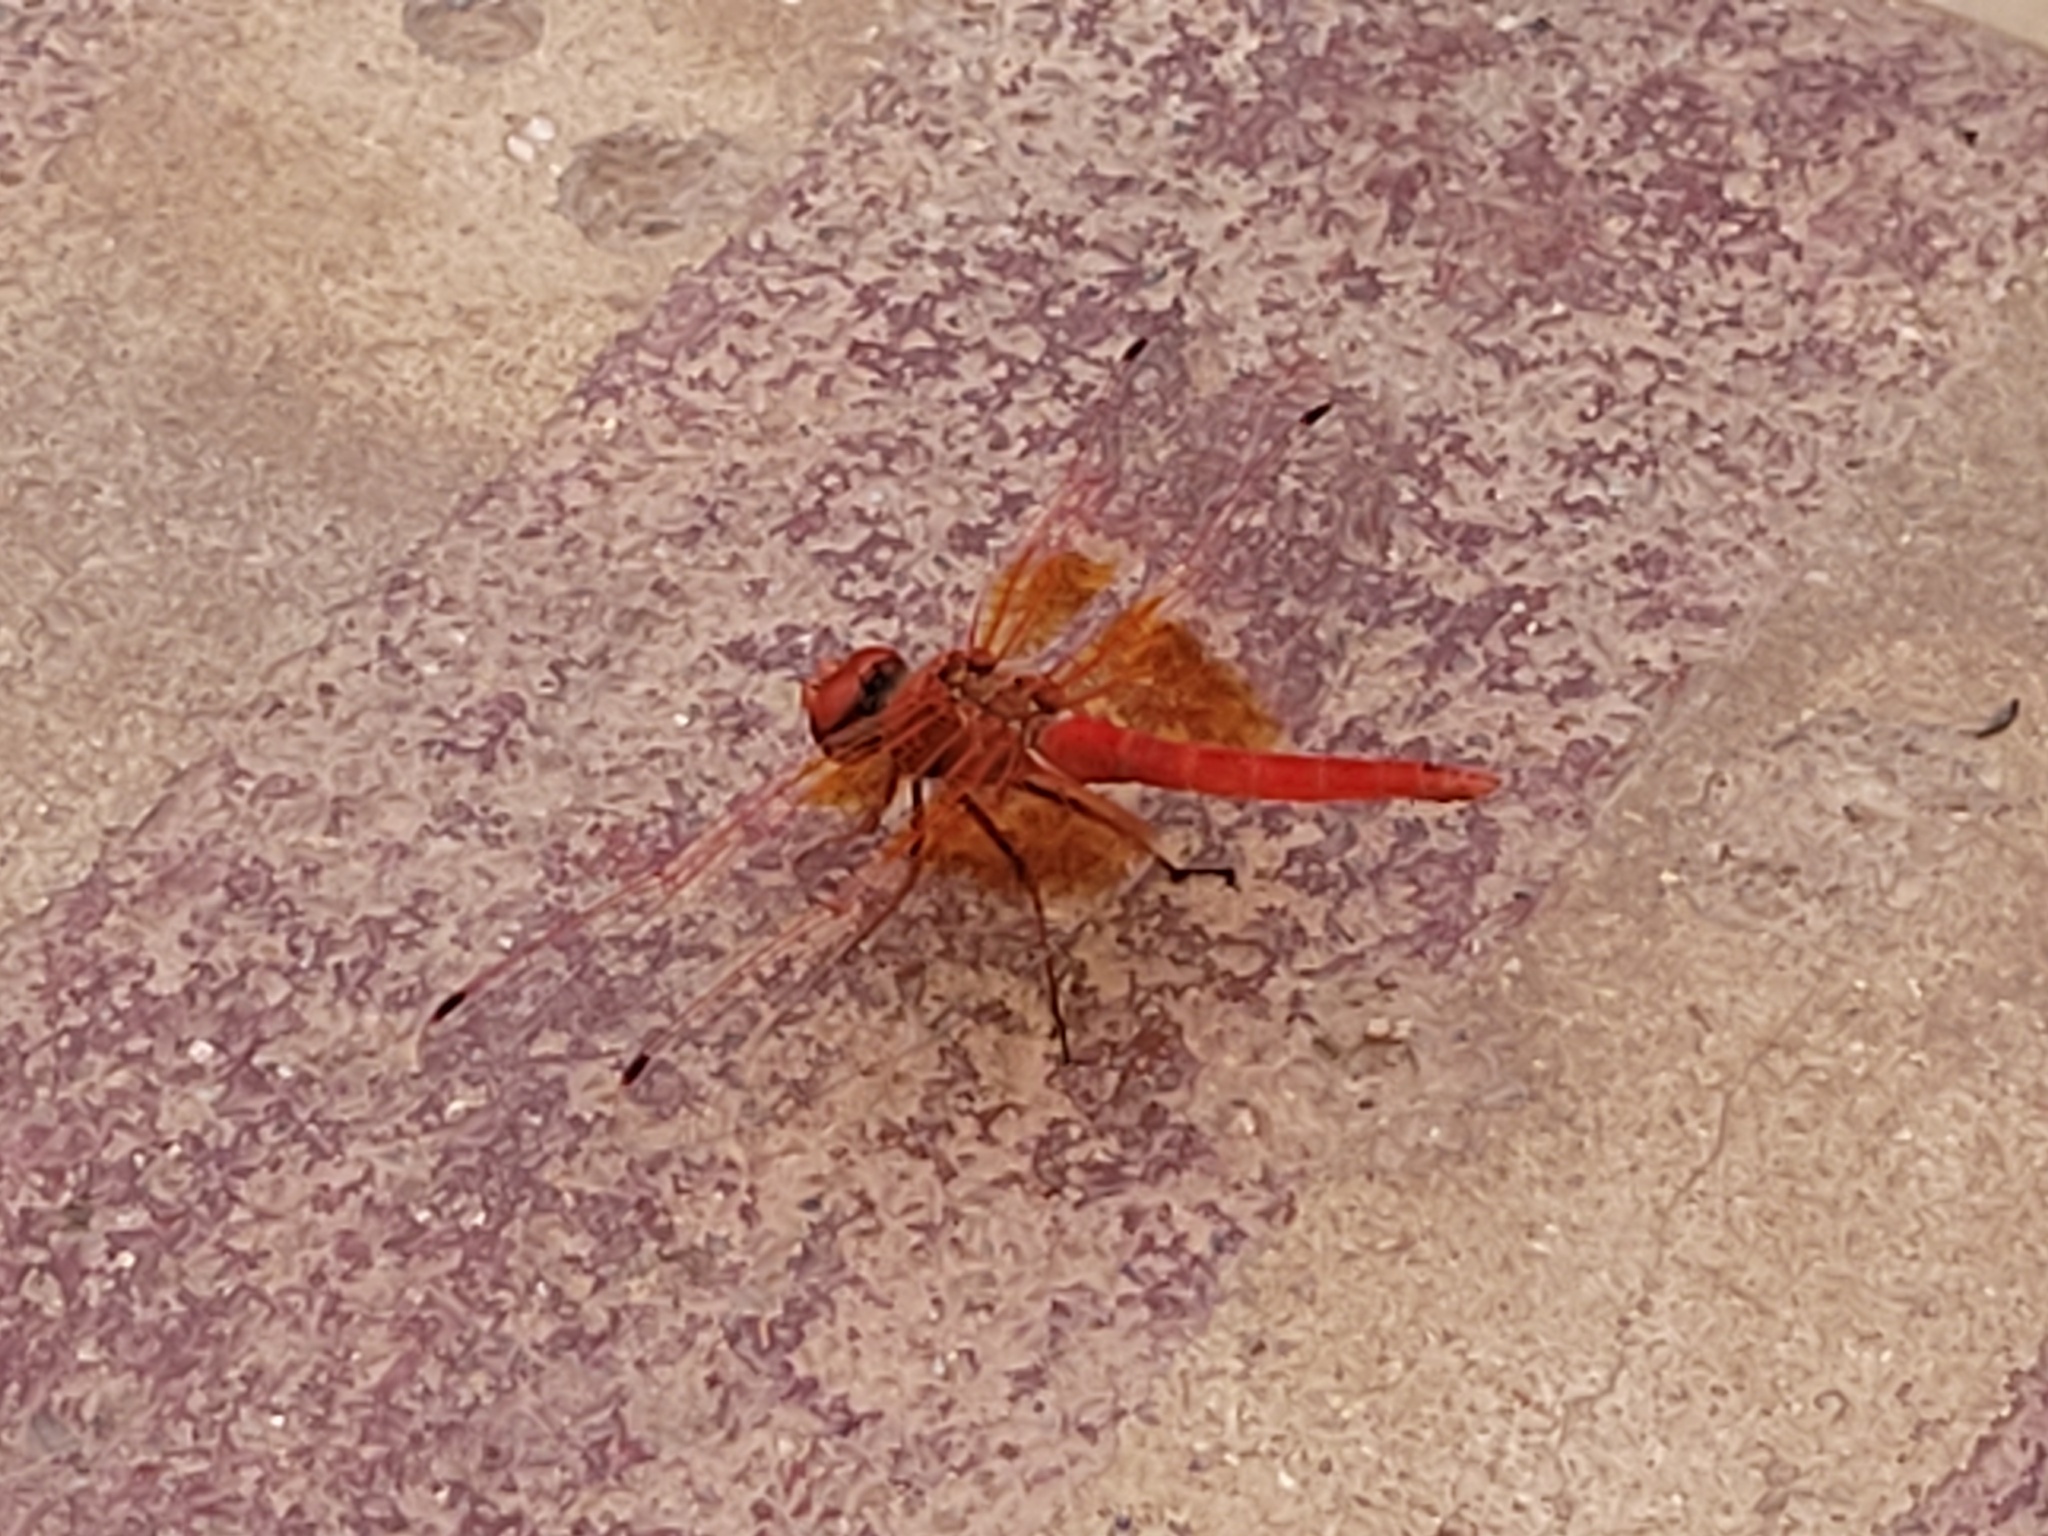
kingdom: Animalia
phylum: Arthropoda
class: Insecta
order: Odonata
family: Libellulidae
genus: Trithemis
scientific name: Trithemis kirbyi
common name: Kirby's dropwing
